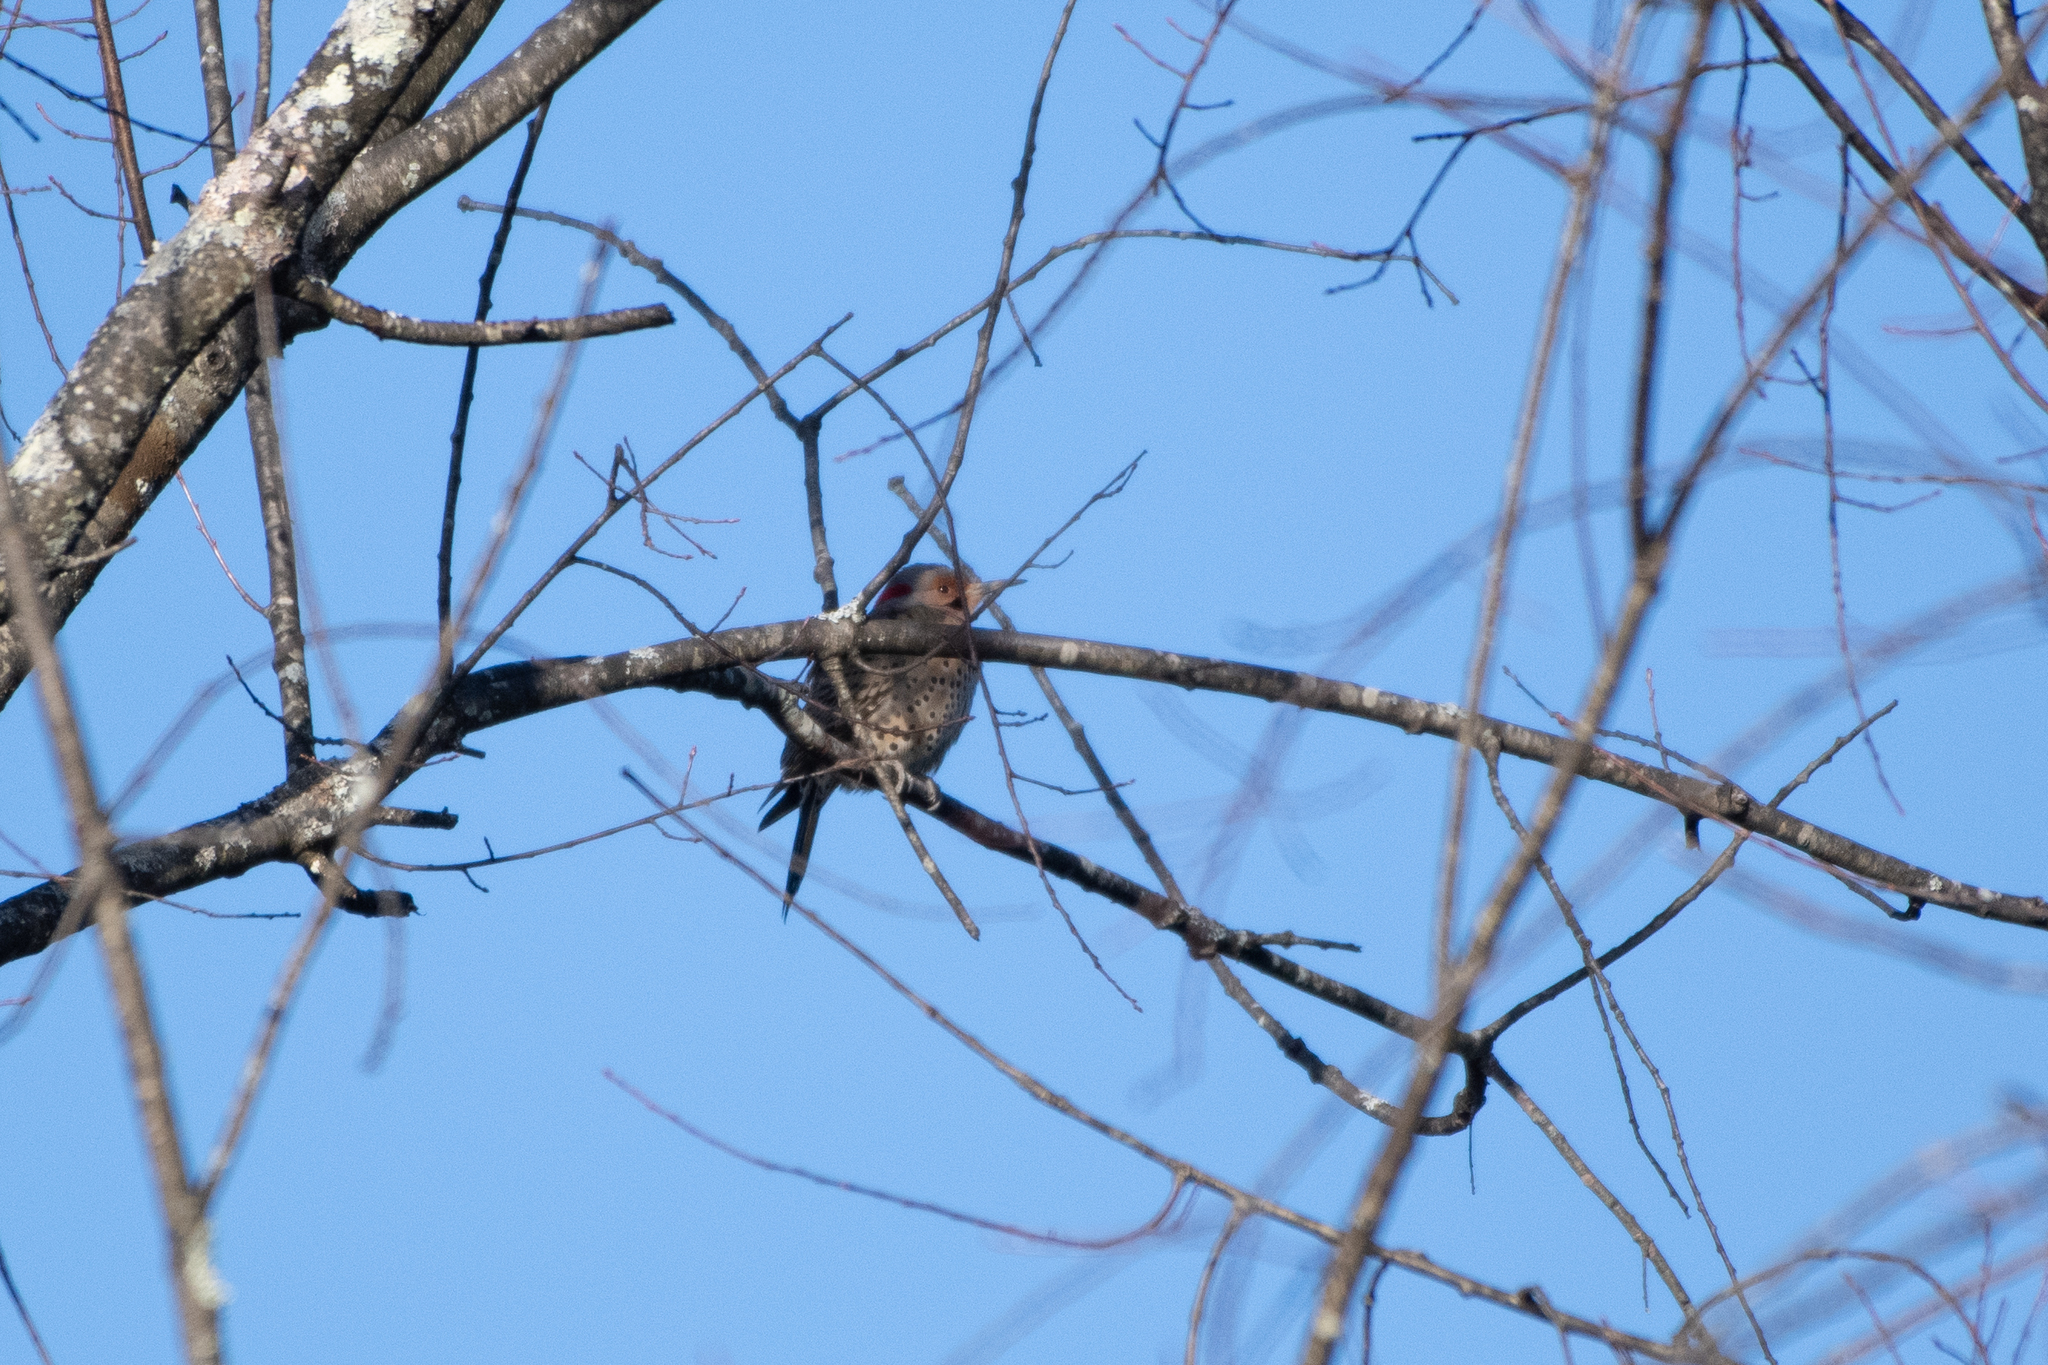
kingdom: Animalia
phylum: Chordata
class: Aves
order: Piciformes
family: Picidae
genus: Colaptes
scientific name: Colaptes auratus
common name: Northern flicker
